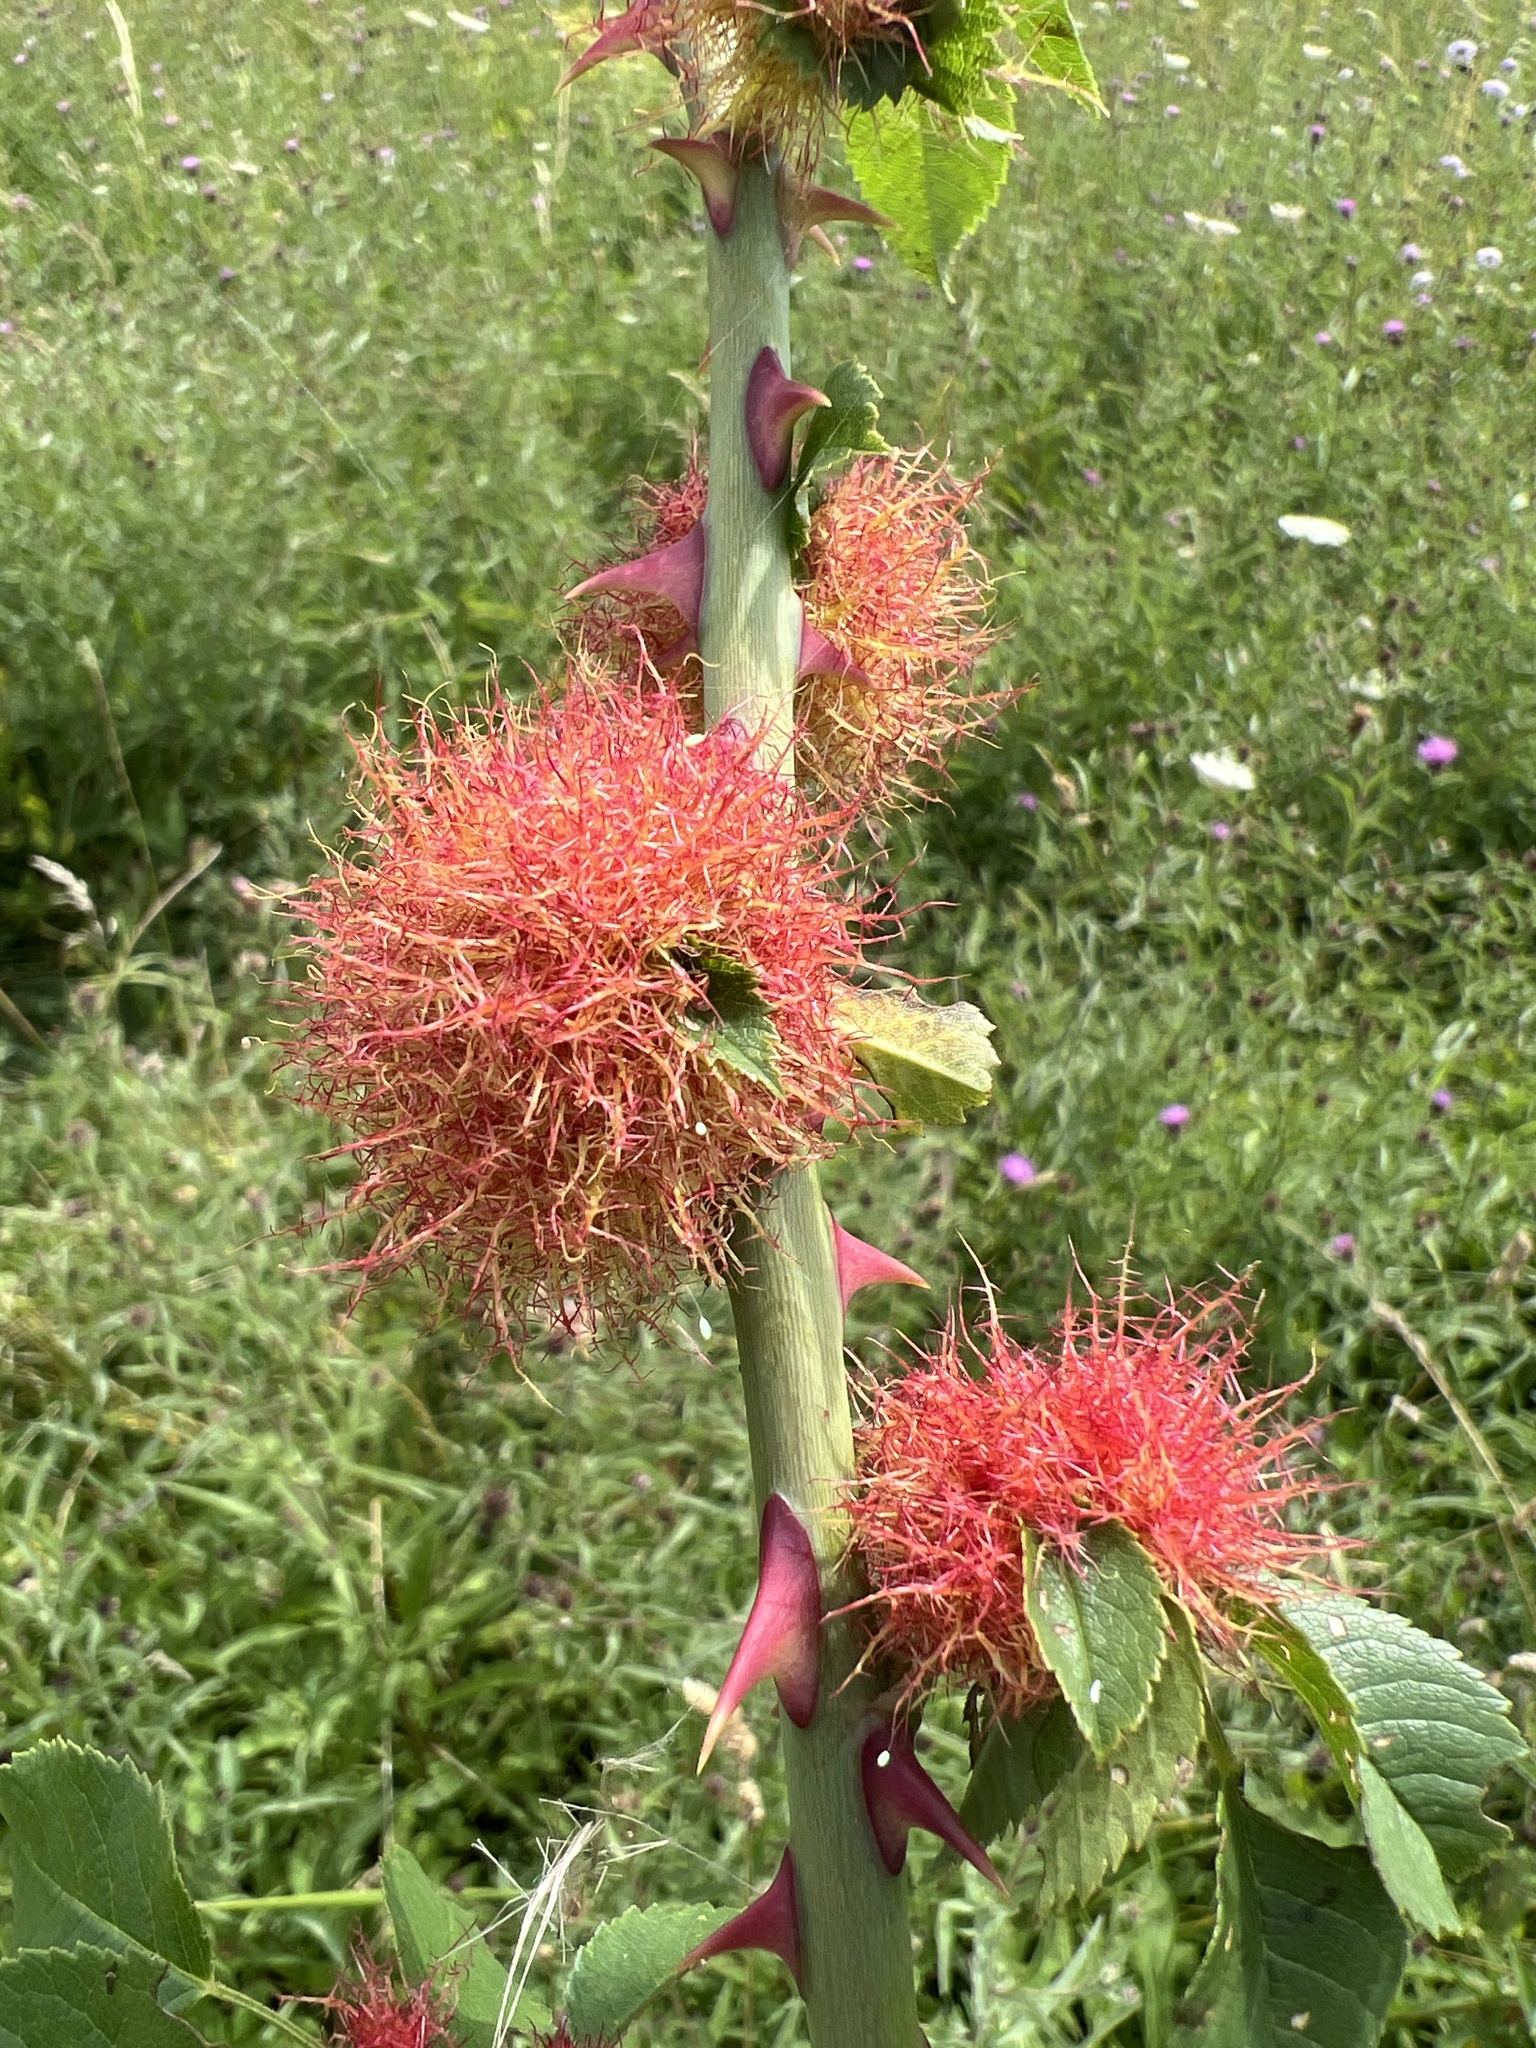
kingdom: Animalia
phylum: Arthropoda
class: Insecta
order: Hymenoptera
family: Cynipidae
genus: Diplolepis
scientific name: Diplolepis rosae
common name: Bedeguar gall
